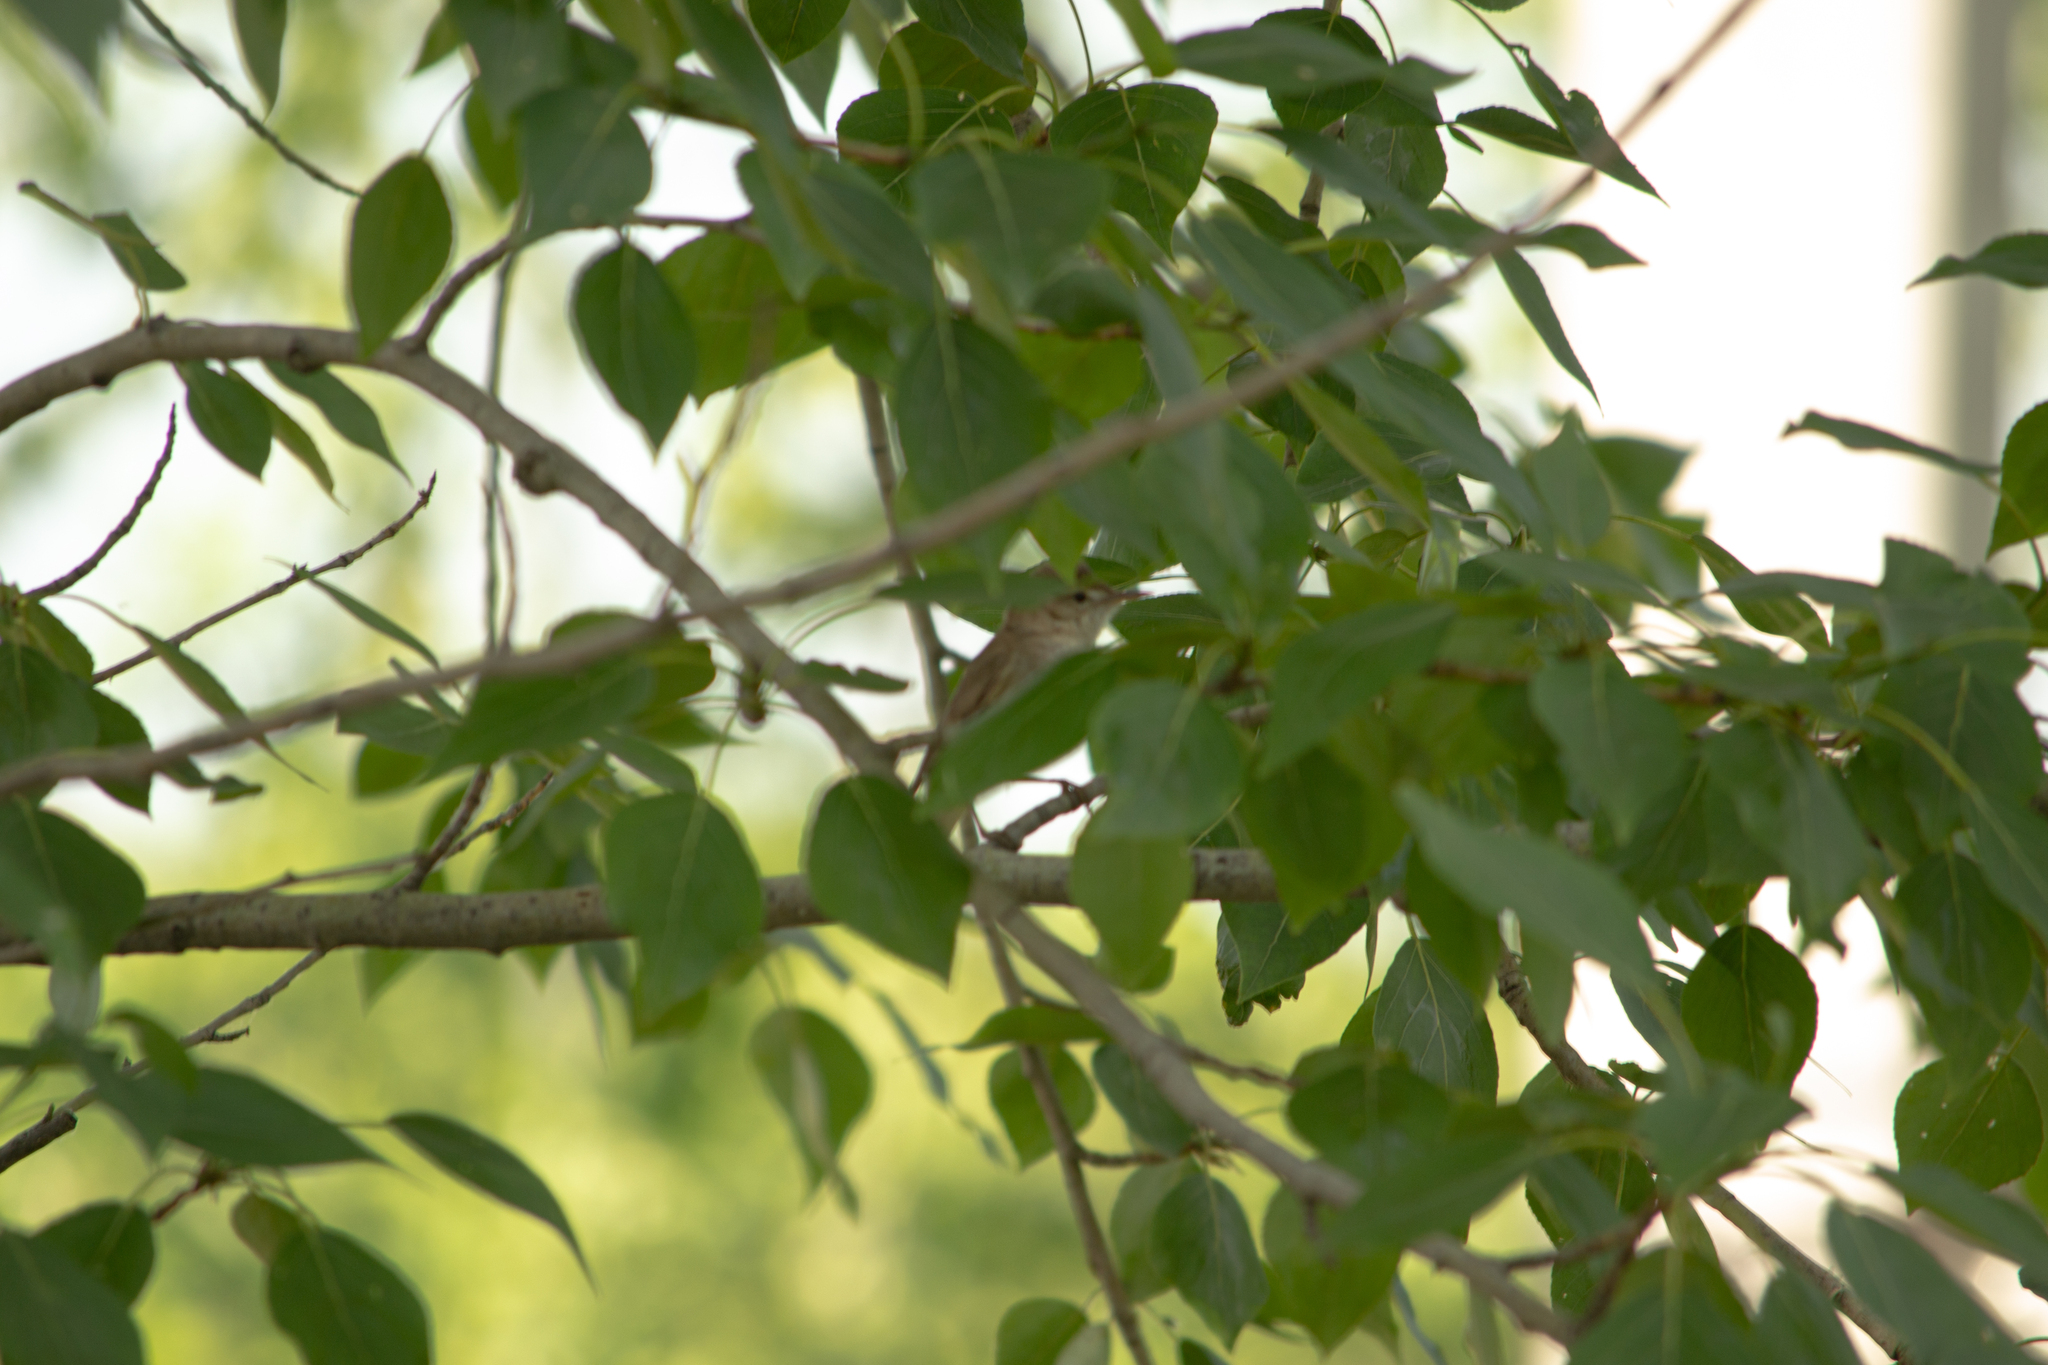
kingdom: Animalia
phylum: Chordata
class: Aves
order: Passeriformes
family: Acrocephalidae
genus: Acrocephalus
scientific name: Acrocephalus dumetorum
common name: Blyth's reed warbler
